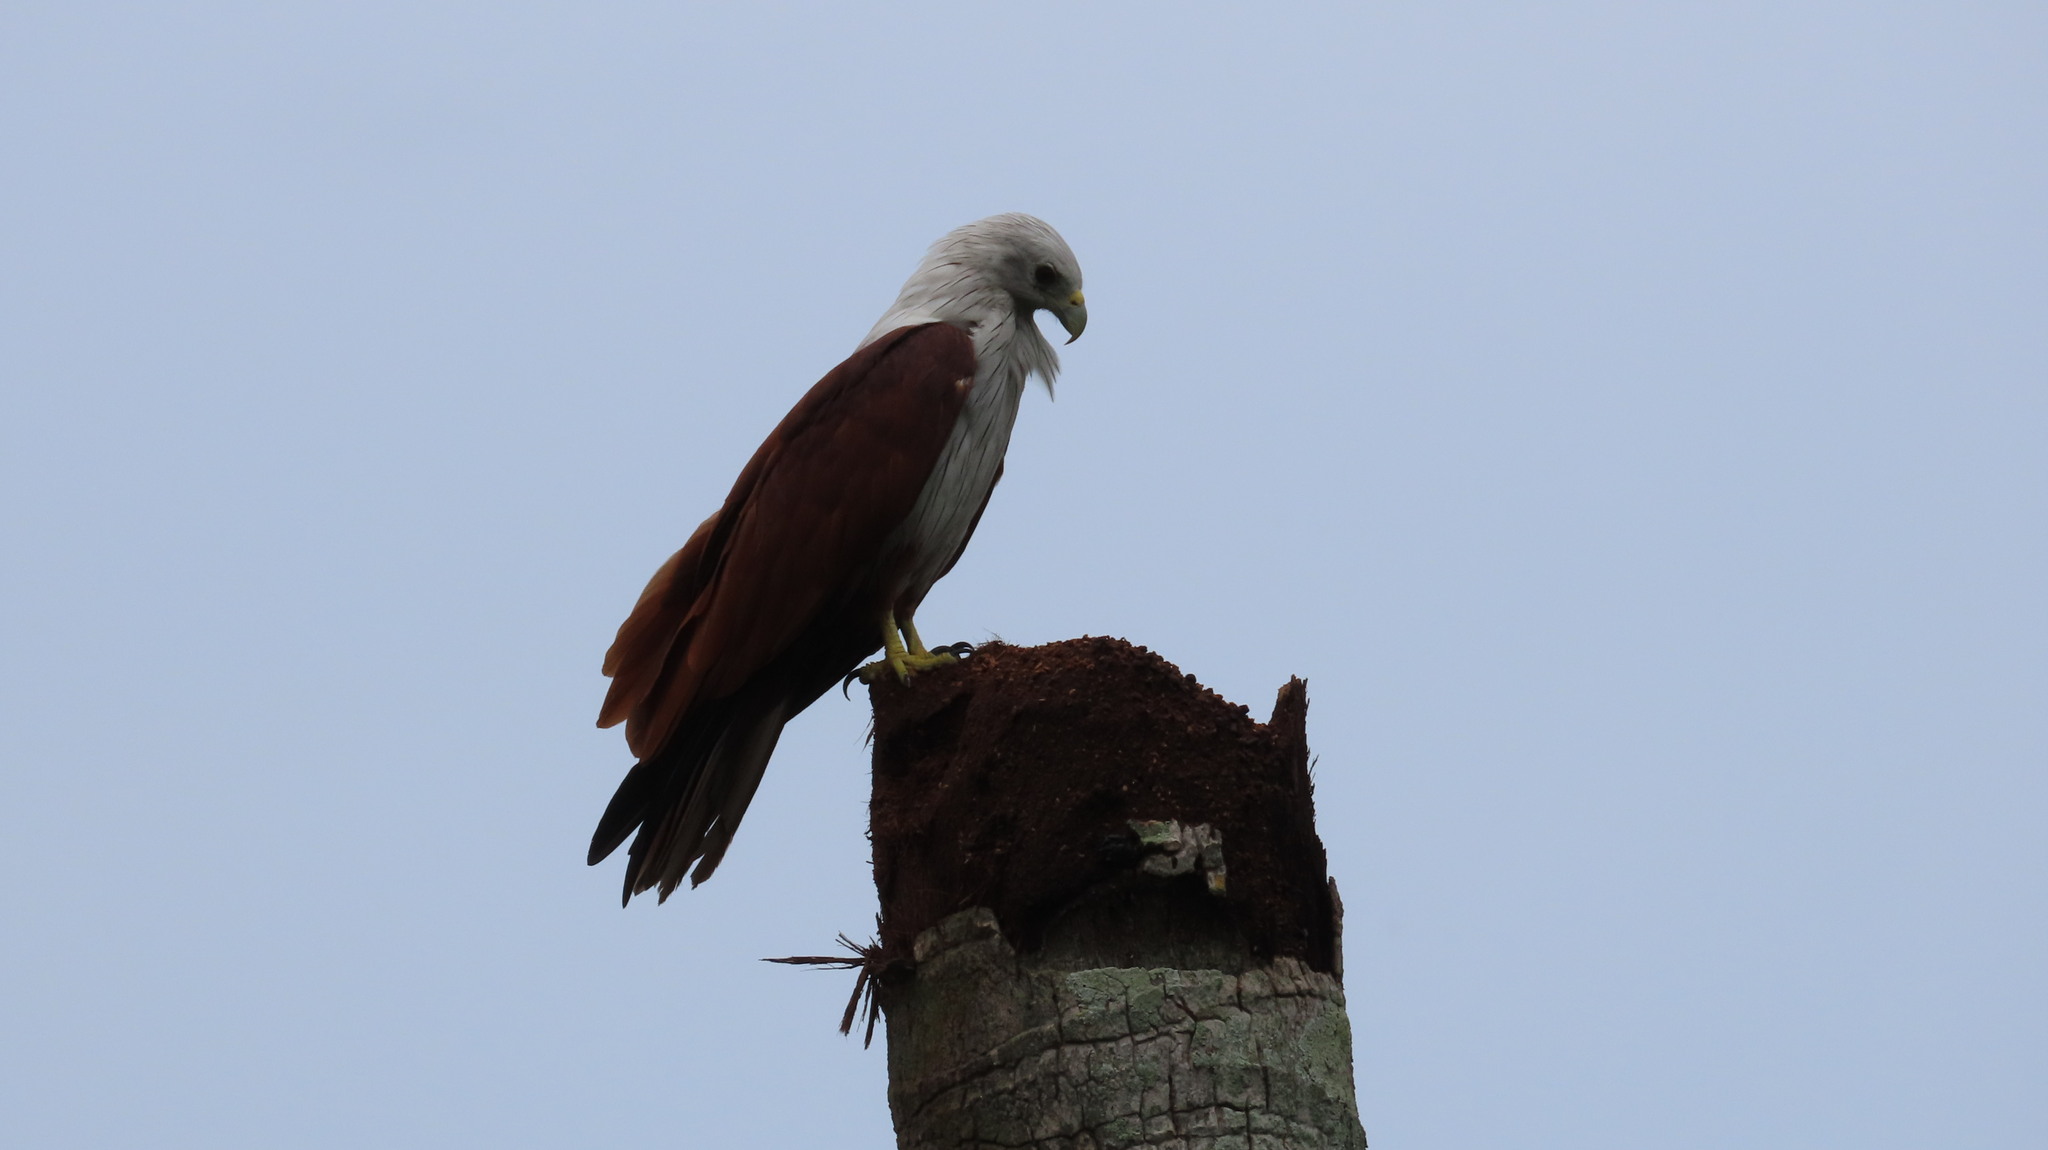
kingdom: Animalia
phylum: Chordata
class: Aves
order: Accipitriformes
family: Accipitridae
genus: Haliastur
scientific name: Haliastur indus
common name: Brahminy kite
